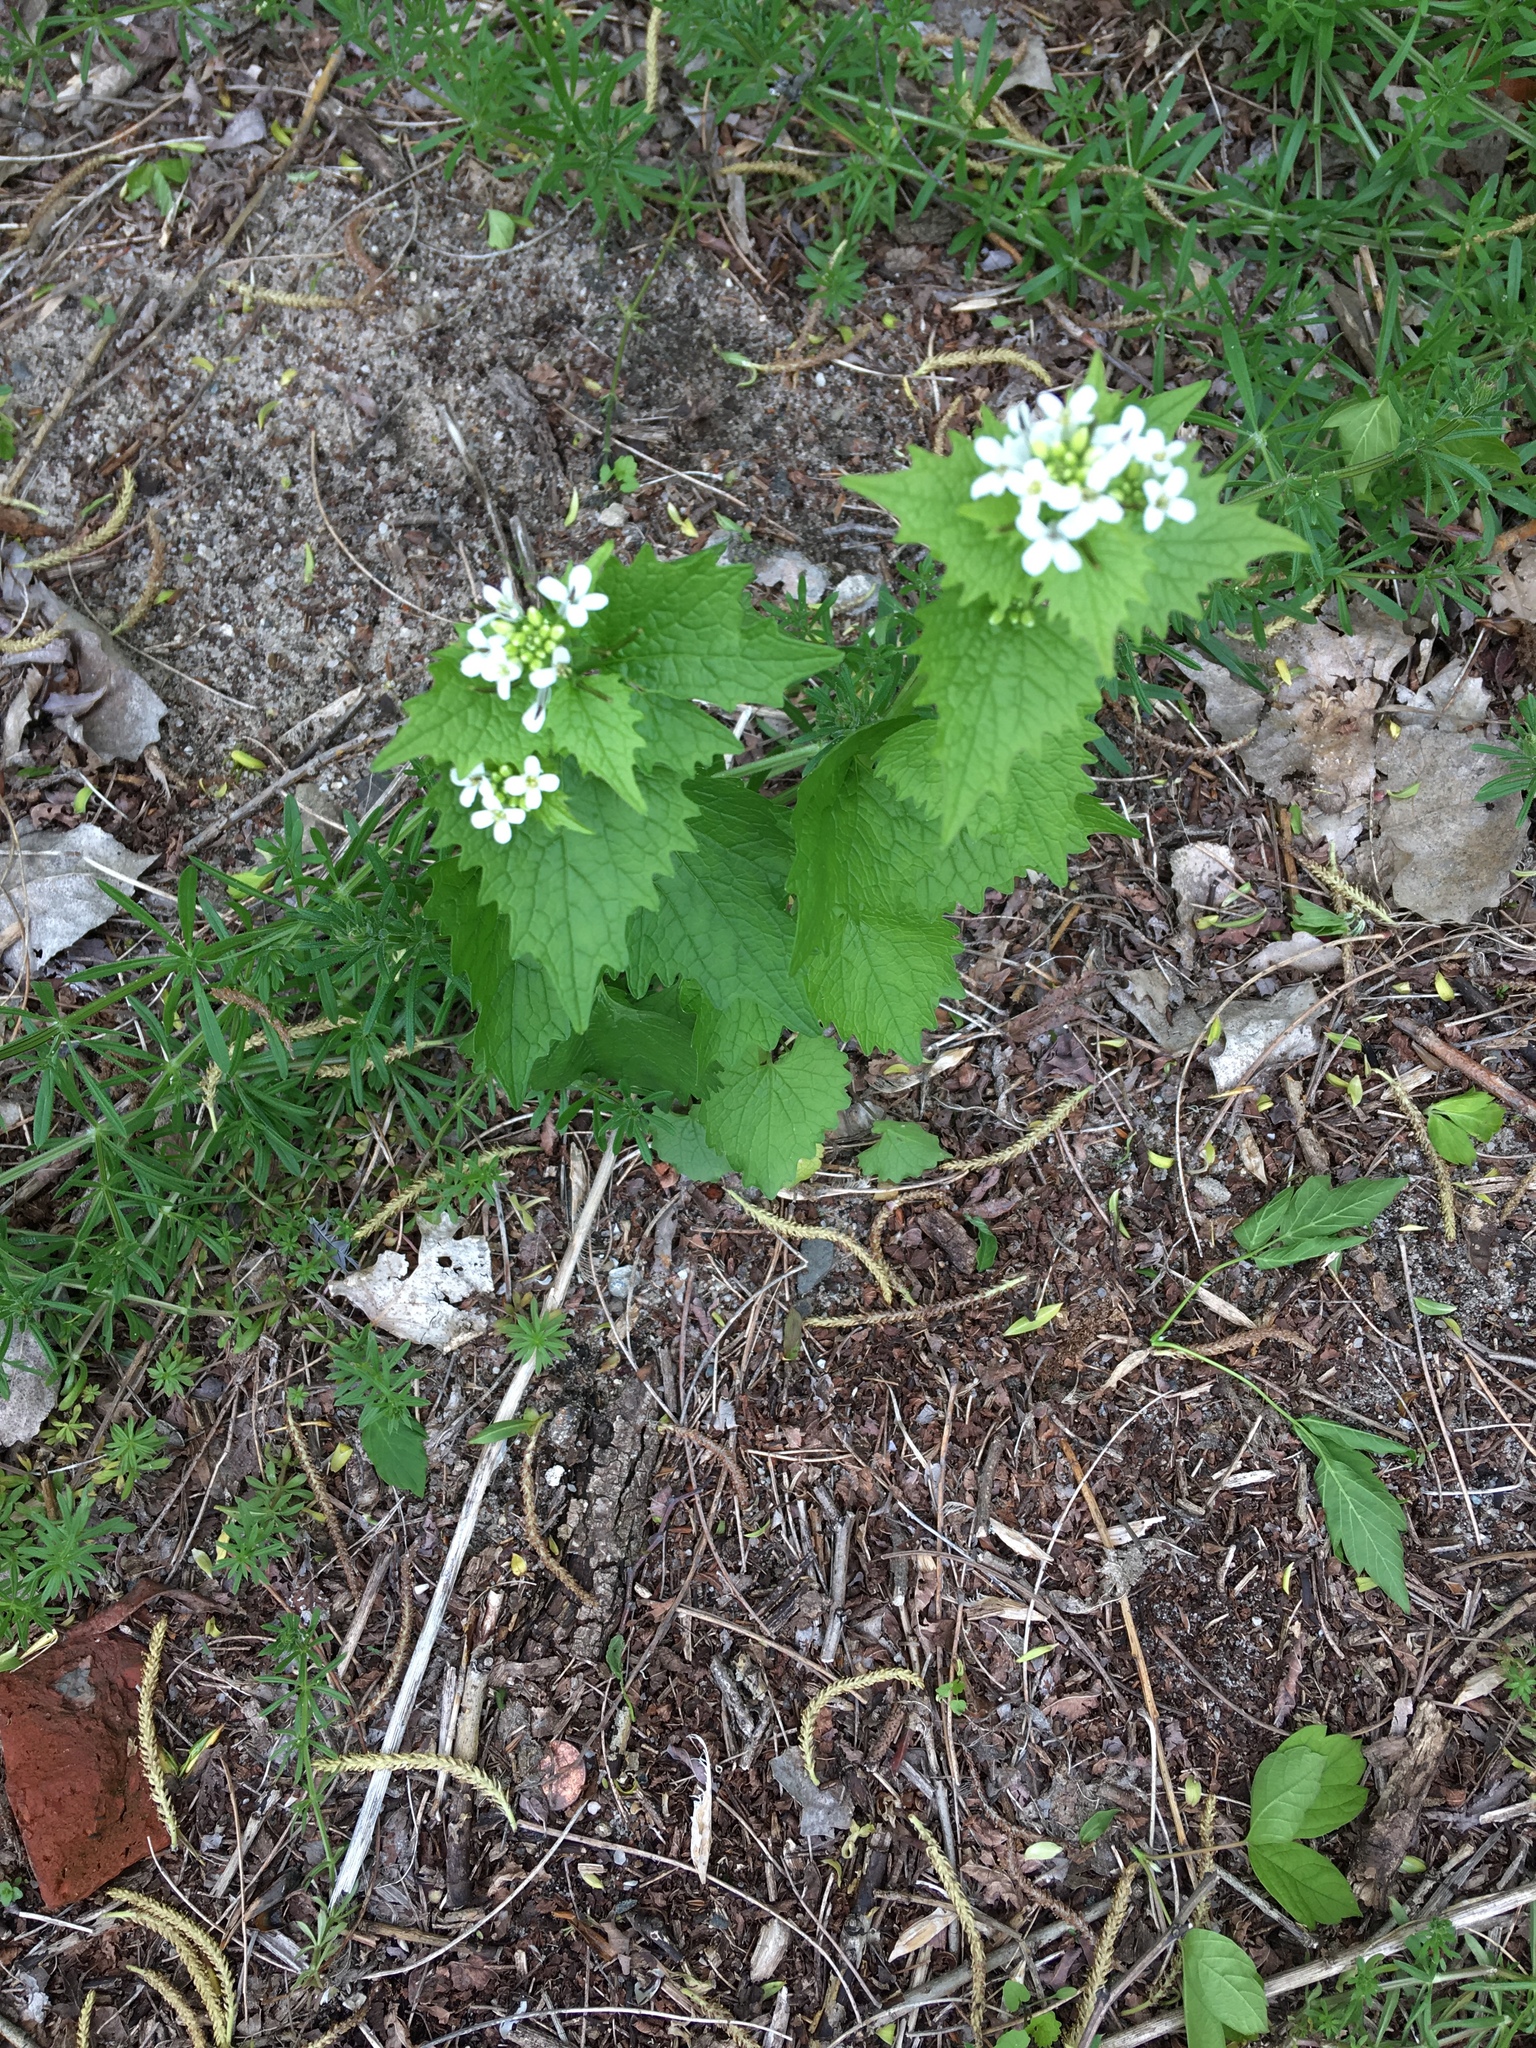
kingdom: Plantae
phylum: Tracheophyta
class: Magnoliopsida
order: Brassicales
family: Brassicaceae
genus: Alliaria
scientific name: Alliaria petiolata
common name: Garlic mustard
